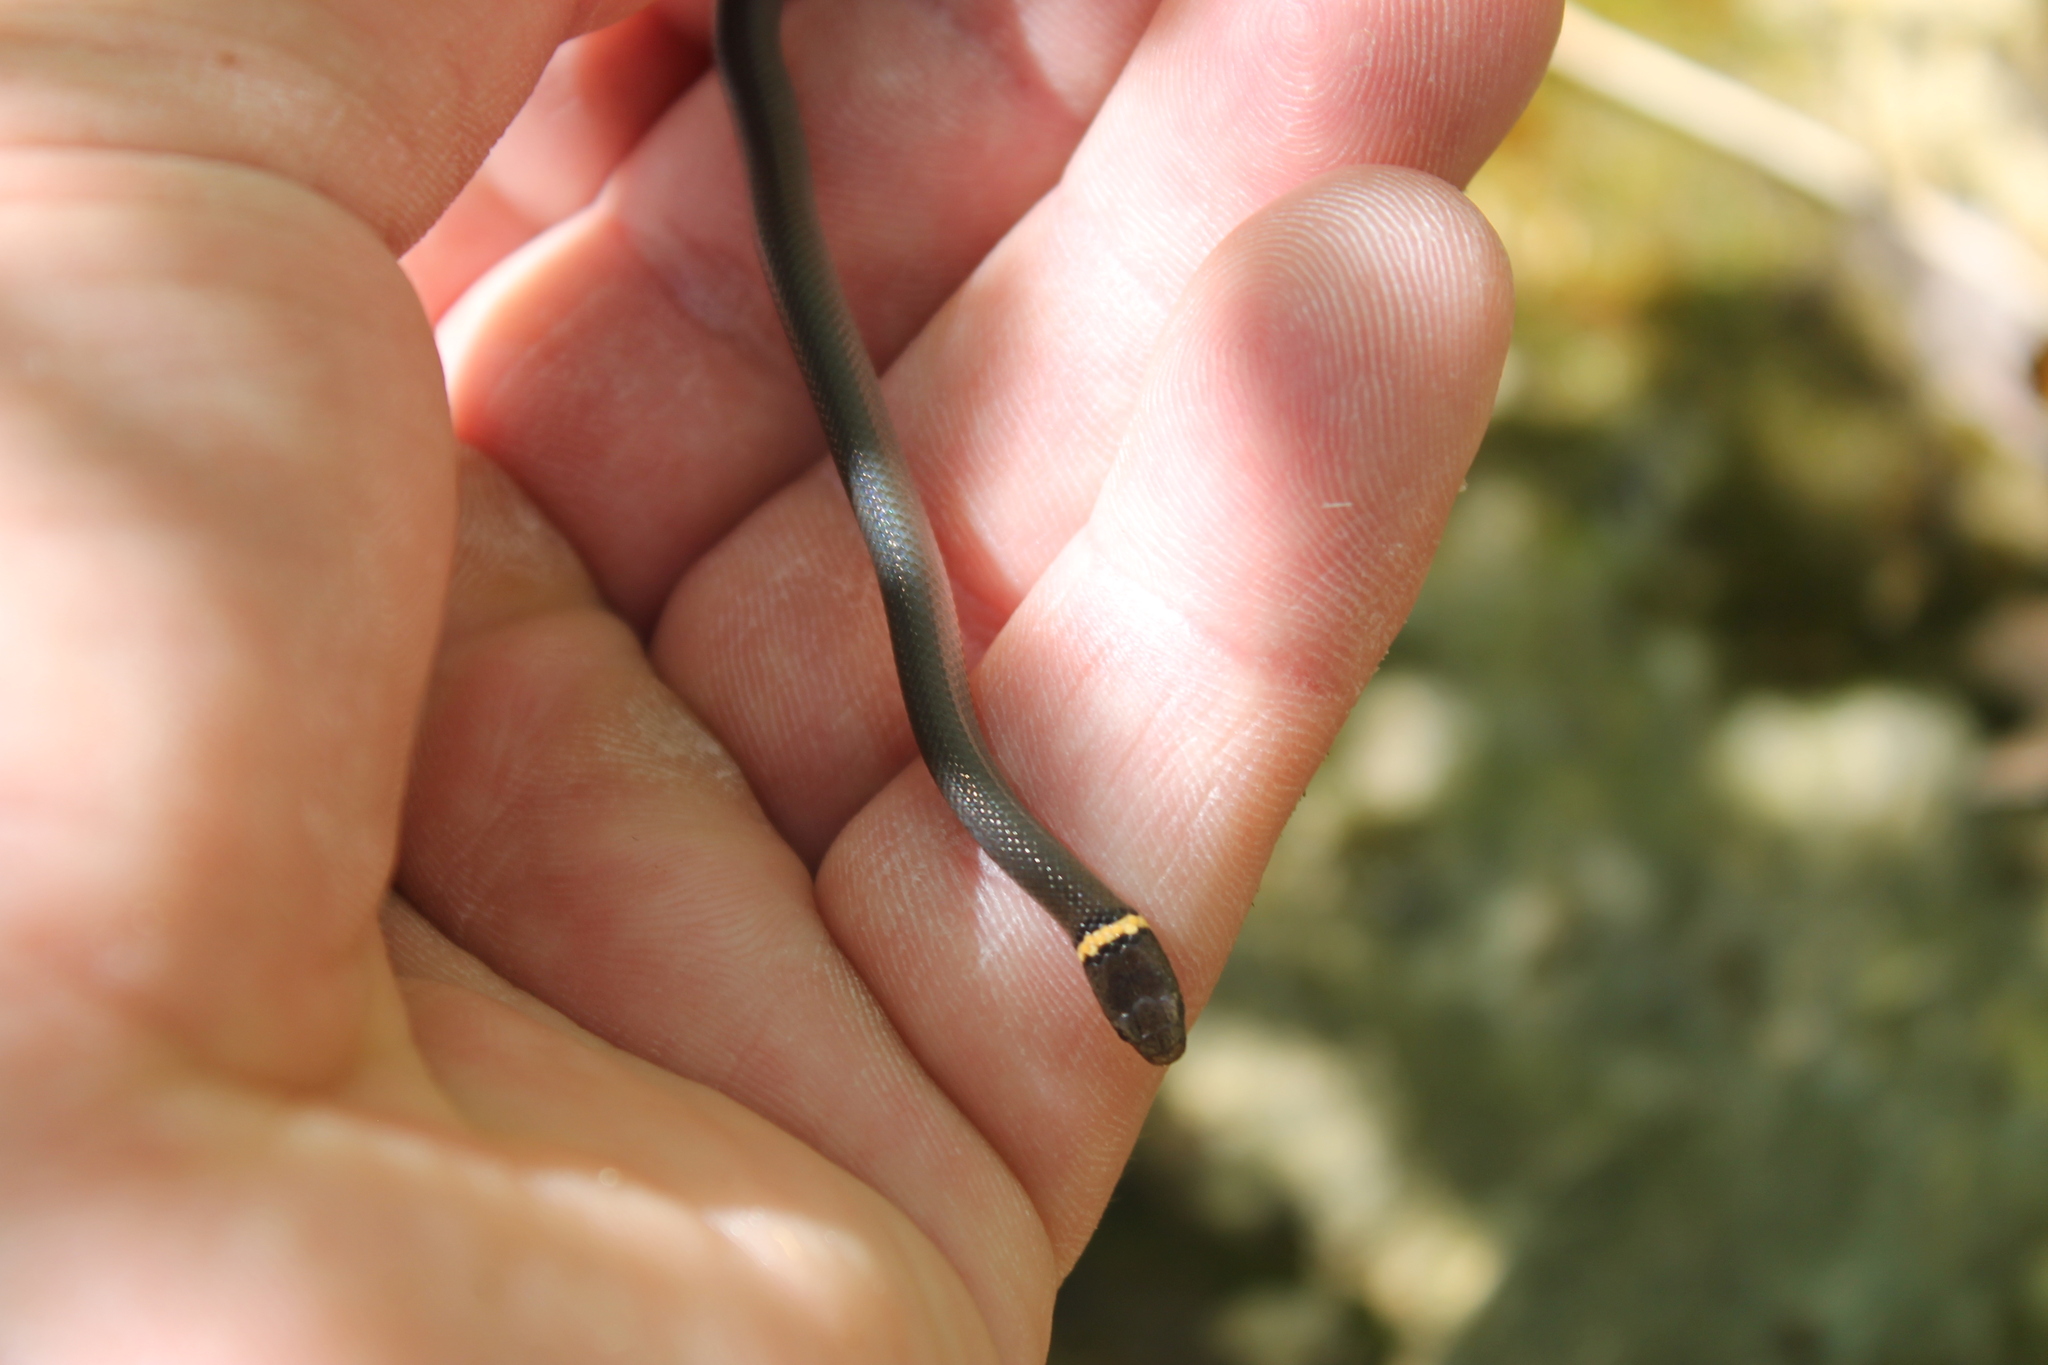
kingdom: Animalia
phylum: Chordata
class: Squamata
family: Colubridae
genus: Diadophis
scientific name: Diadophis punctatus
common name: Ringneck snake
